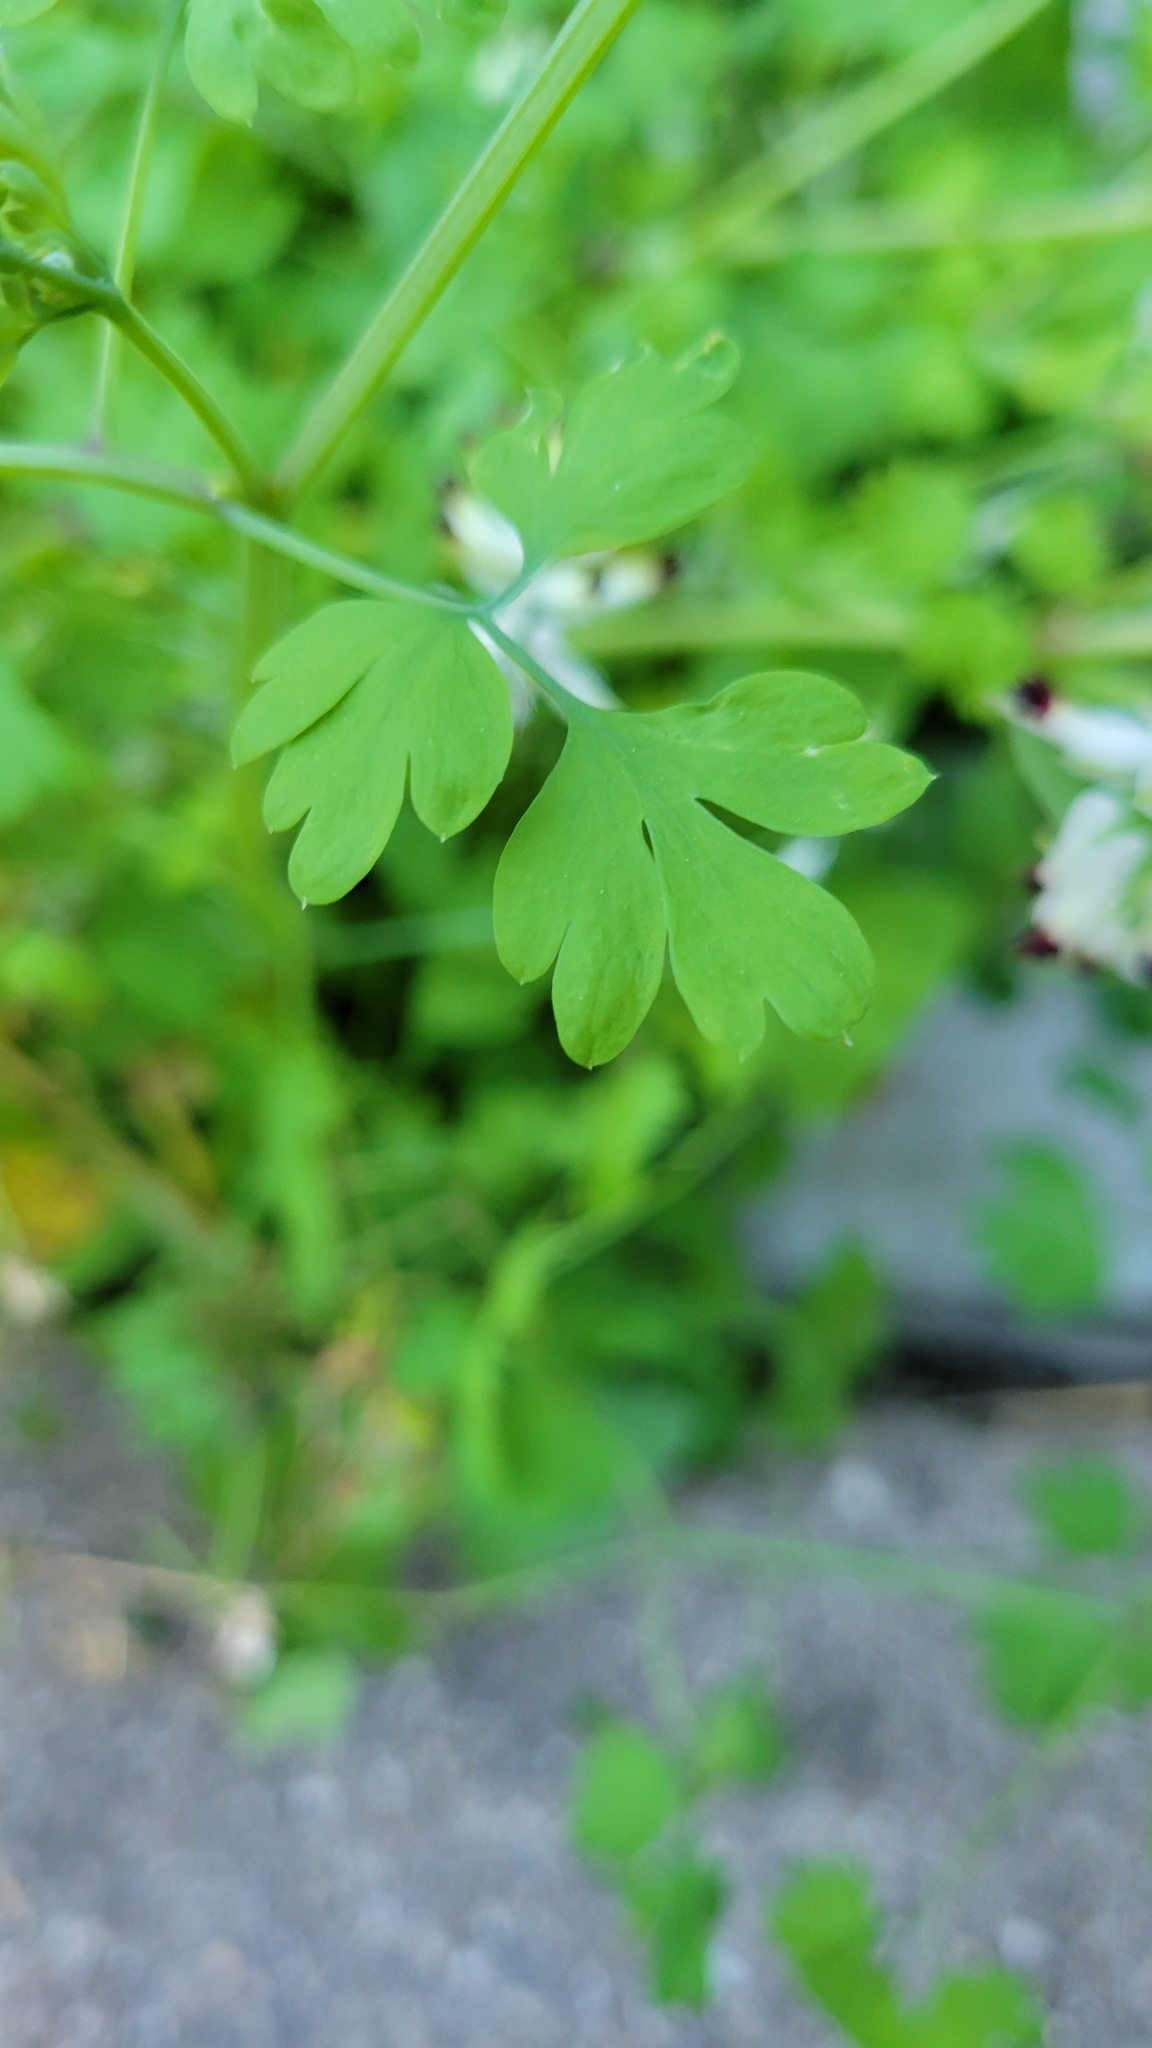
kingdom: Plantae
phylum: Tracheophyta
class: Magnoliopsida
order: Ranunculales
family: Papaveraceae
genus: Fumaria
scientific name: Fumaria capreolata
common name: White ramping-fumitory
